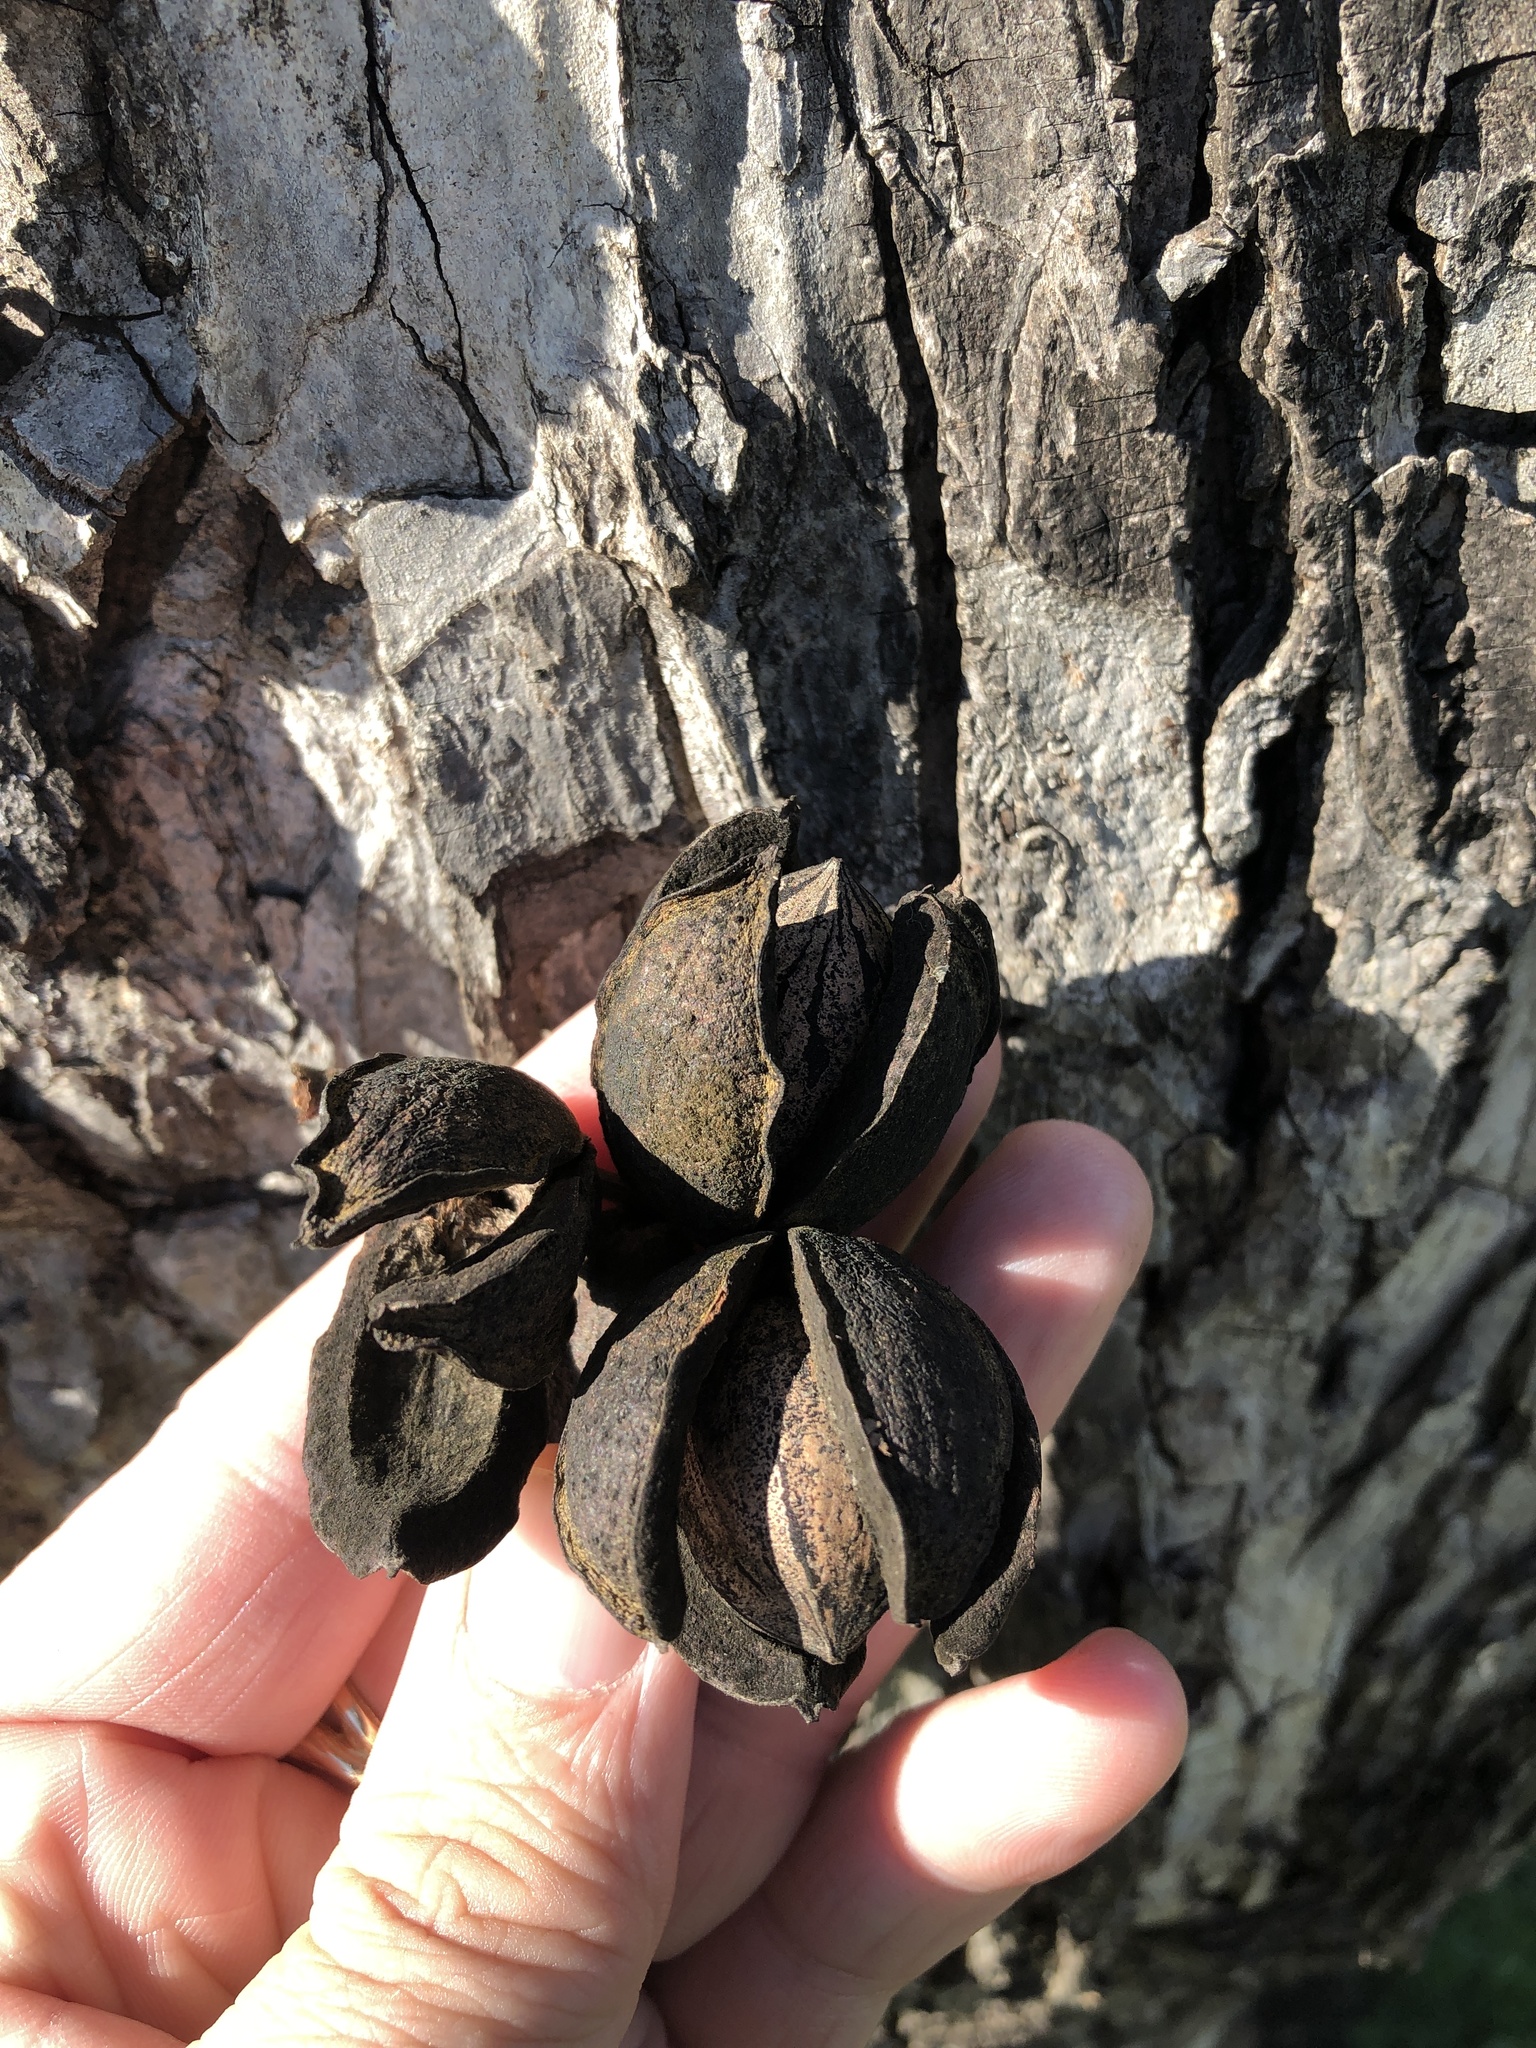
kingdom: Plantae
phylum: Tracheophyta
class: Magnoliopsida
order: Fagales
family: Juglandaceae
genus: Carya
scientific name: Carya illinoinensis
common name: Pecan
